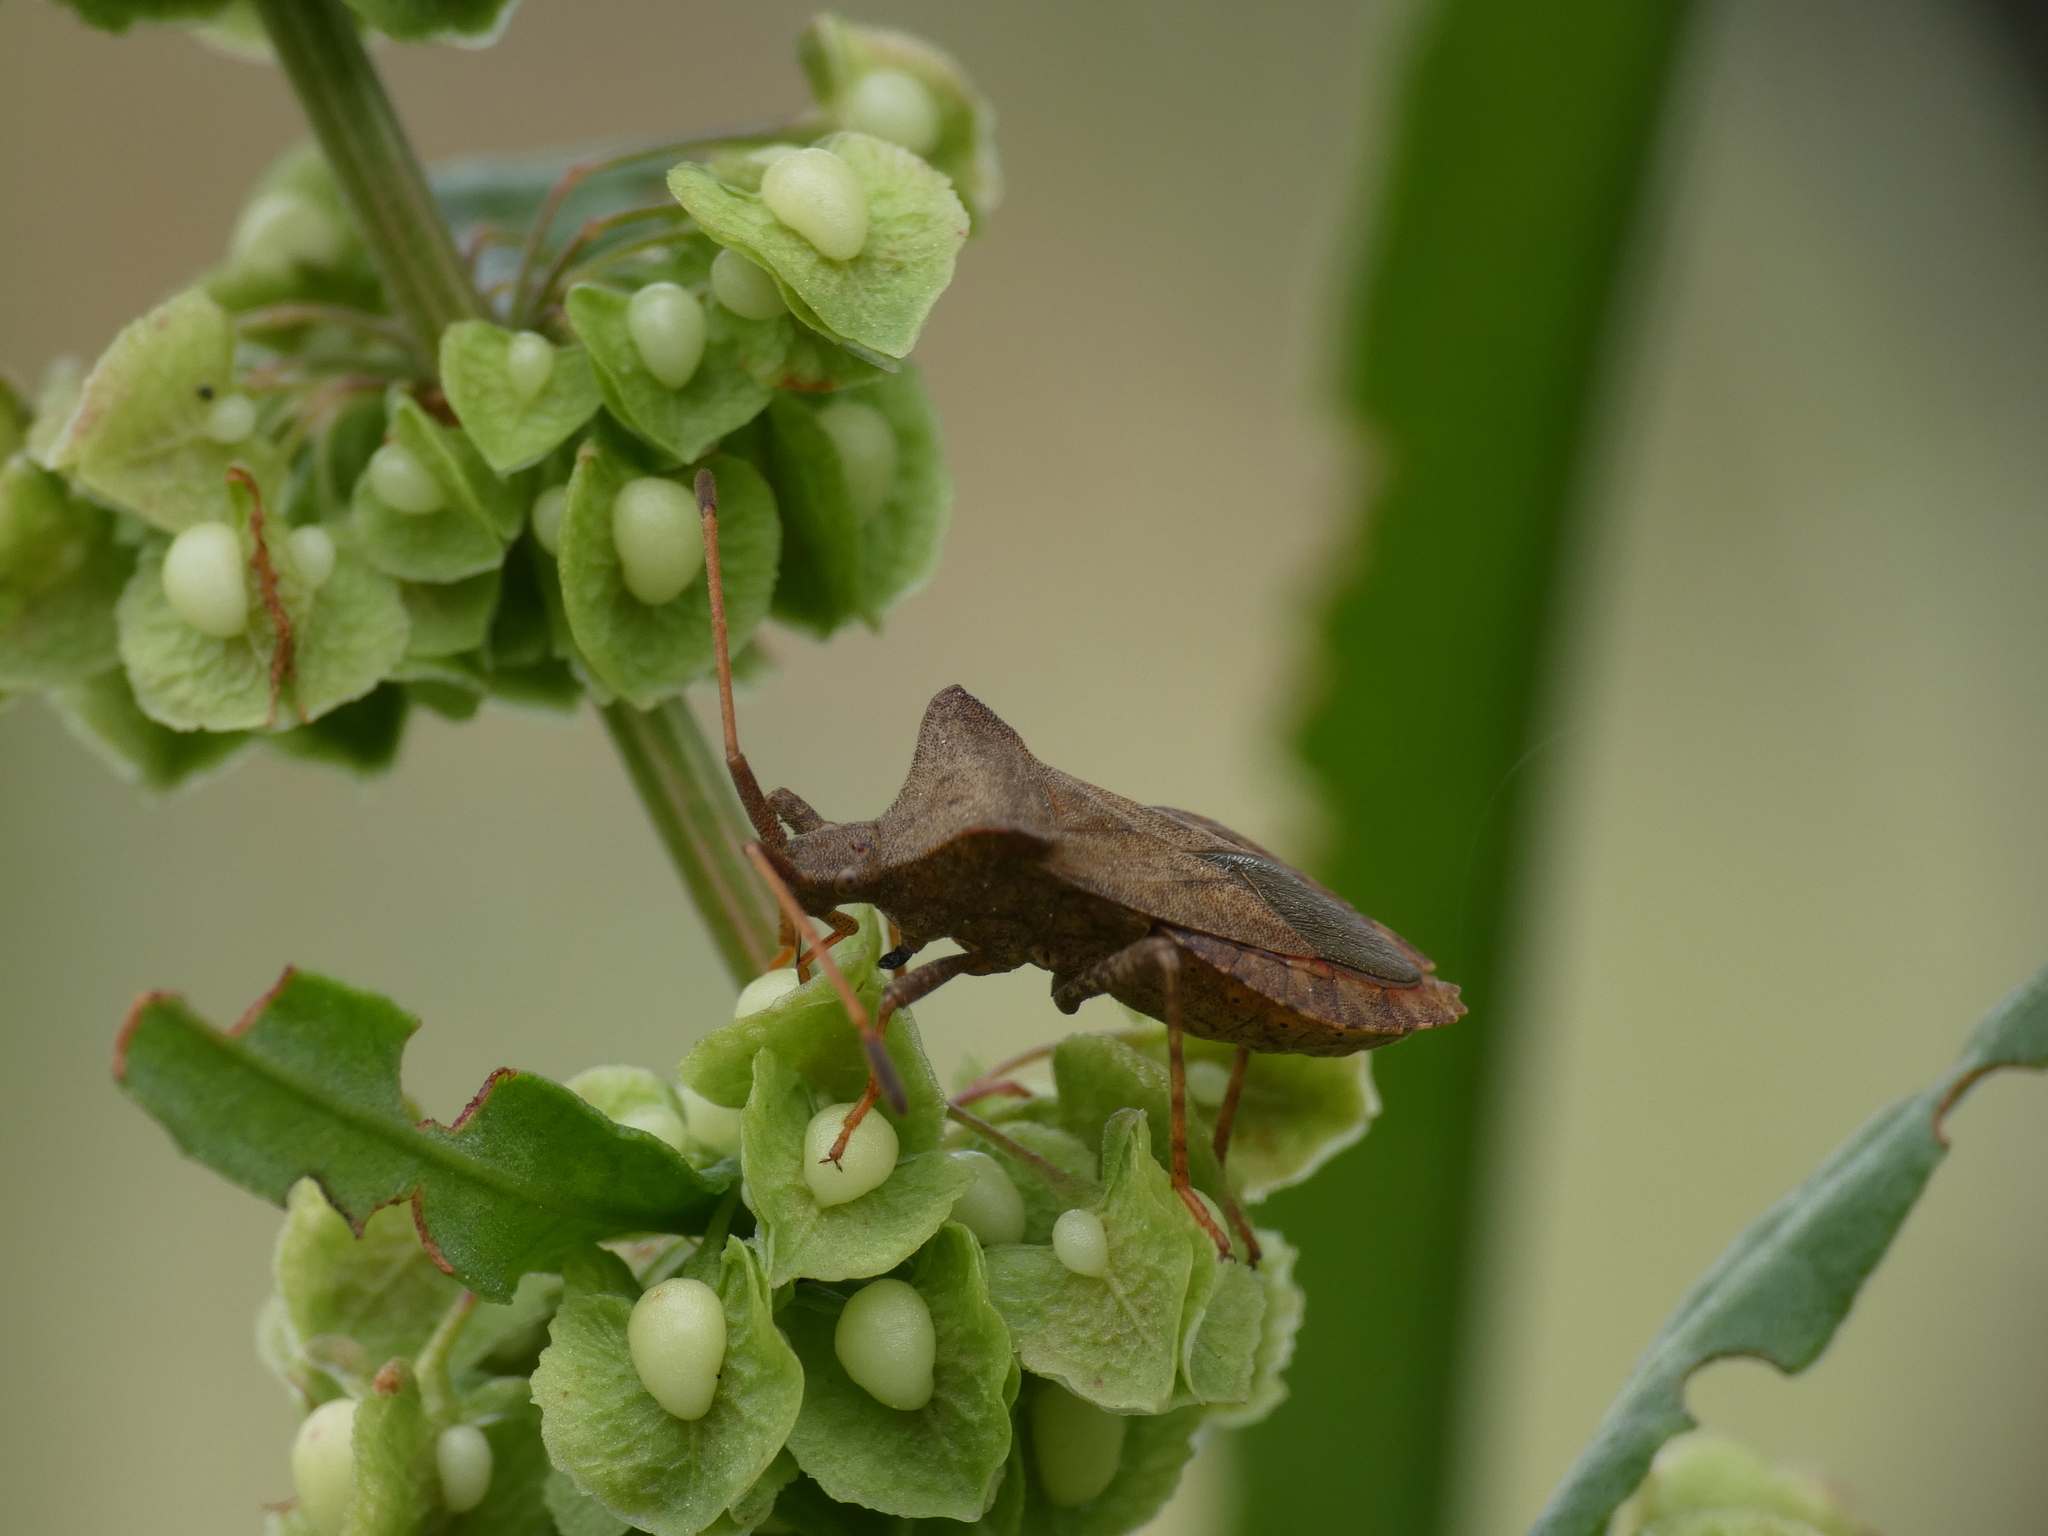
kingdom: Animalia
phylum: Arthropoda
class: Insecta
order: Hemiptera
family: Coreidae
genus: Coreus
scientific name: Coreus marginatus
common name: Dock bug
